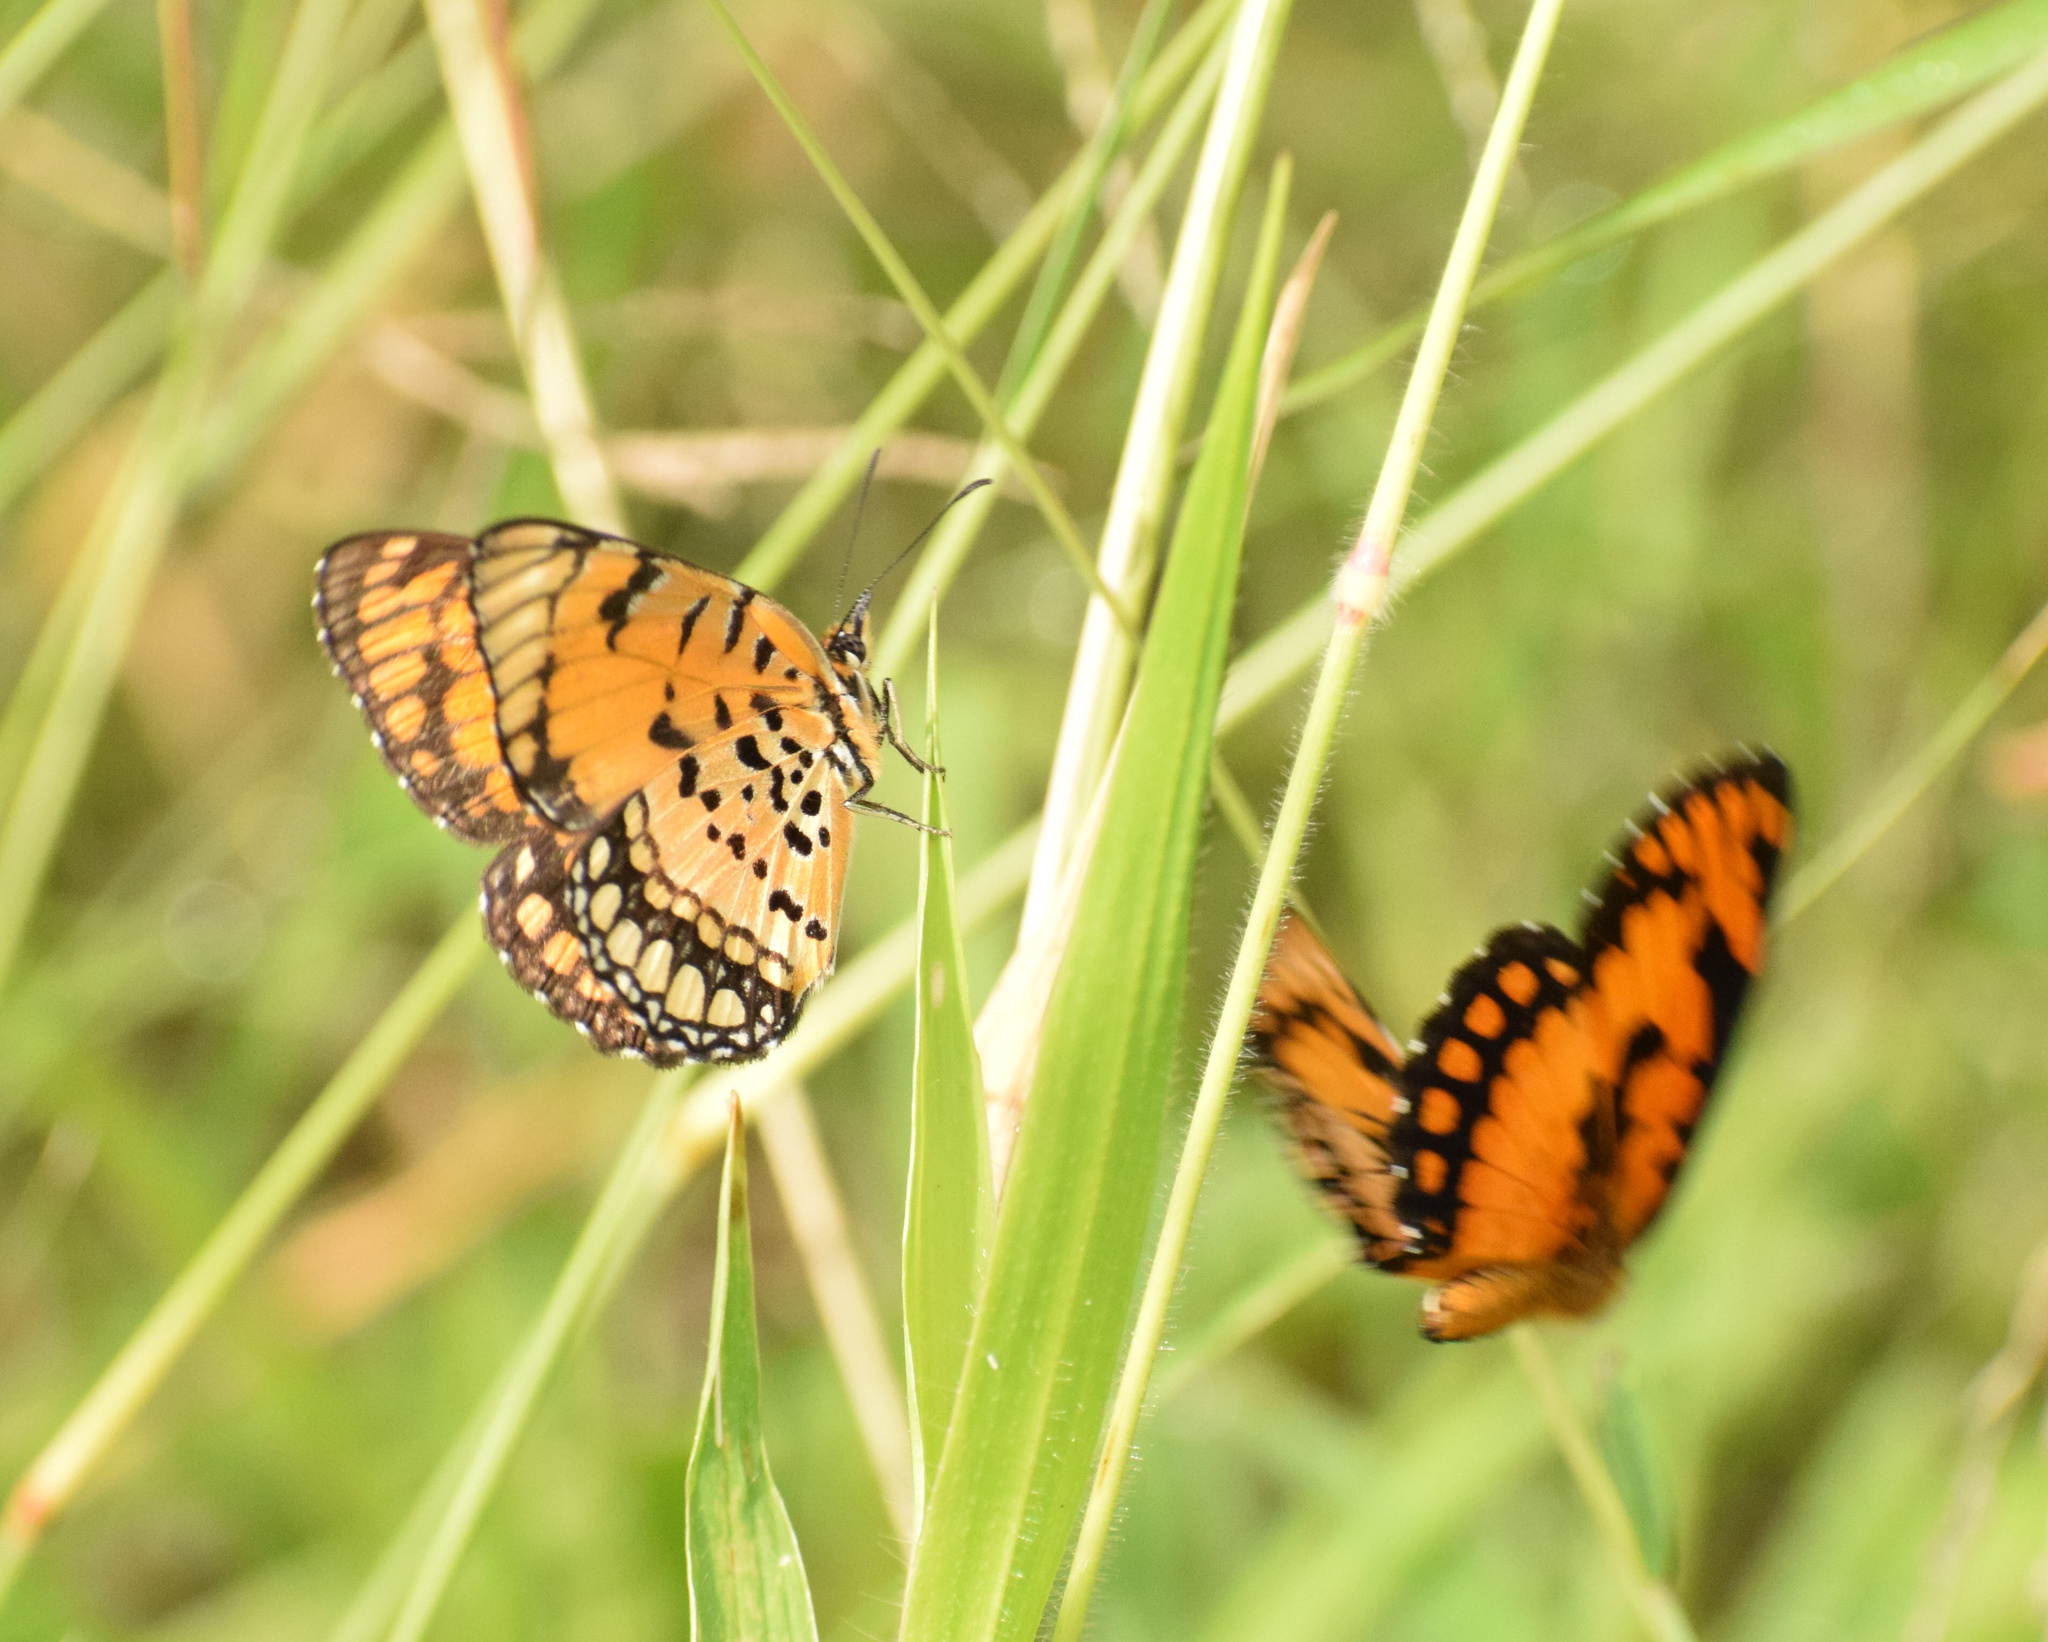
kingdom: Animalia
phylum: Arthropoda
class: Insecta
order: Lepidoptera
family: Nymphalidae
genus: Byblia
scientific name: Byblia acheloia
